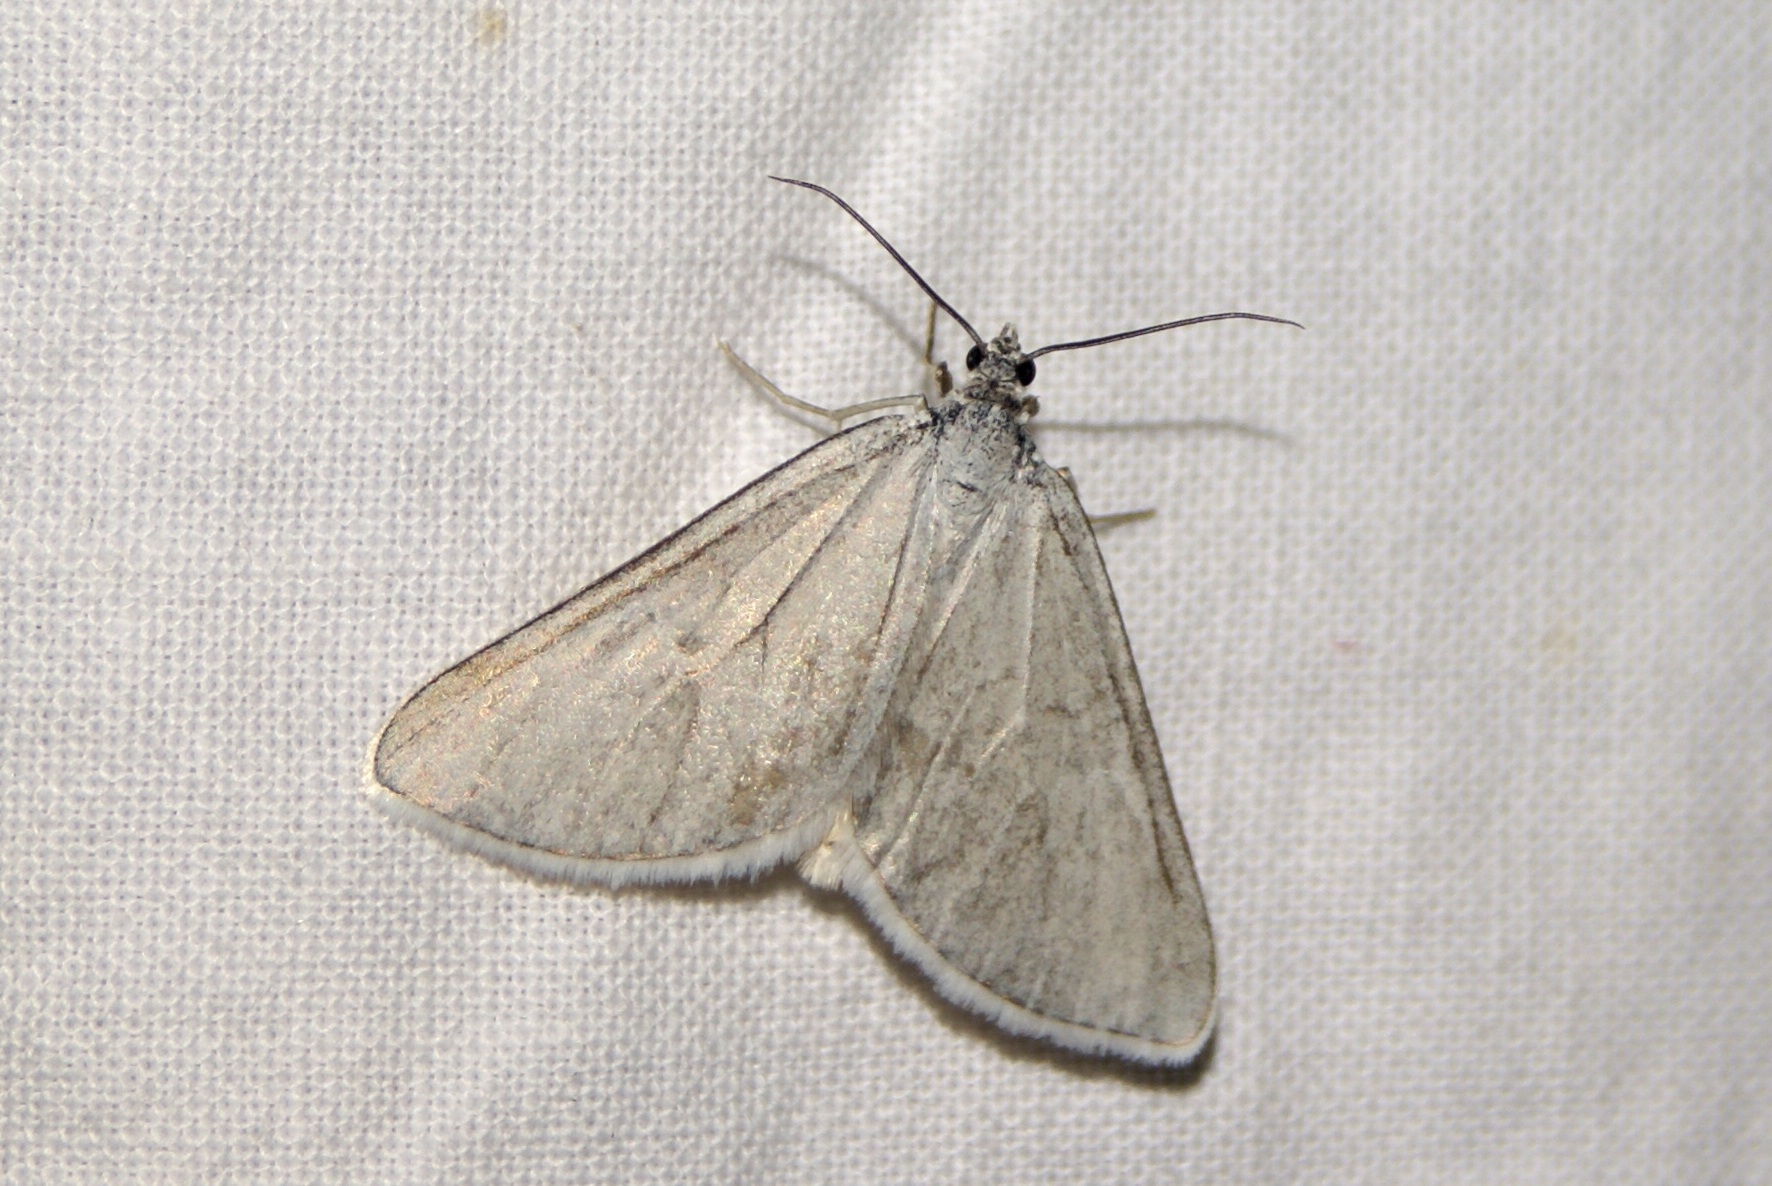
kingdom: Animalia
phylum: Arthropoda
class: Insecta
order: Lepidoptera
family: Geometridae
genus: Lithostege
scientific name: Lithostege farinata
